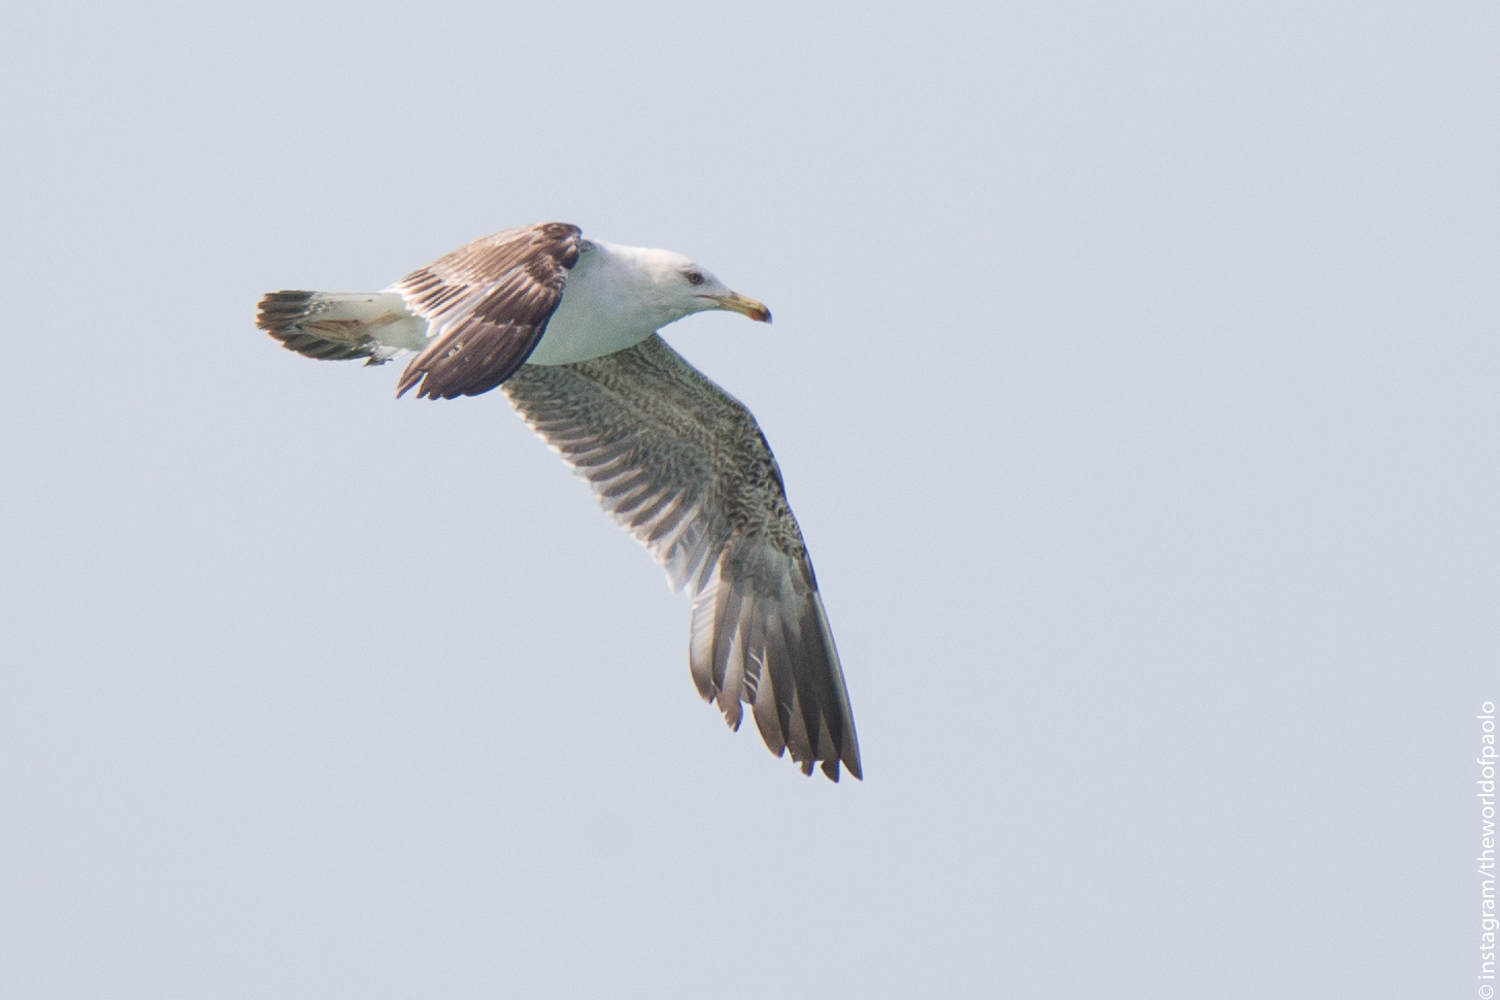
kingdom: Animalia
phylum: Chordata
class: Aves
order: Charadriiformes
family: Laridae
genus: Larus
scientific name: Larus michahellis
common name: Yellow-legged gull
